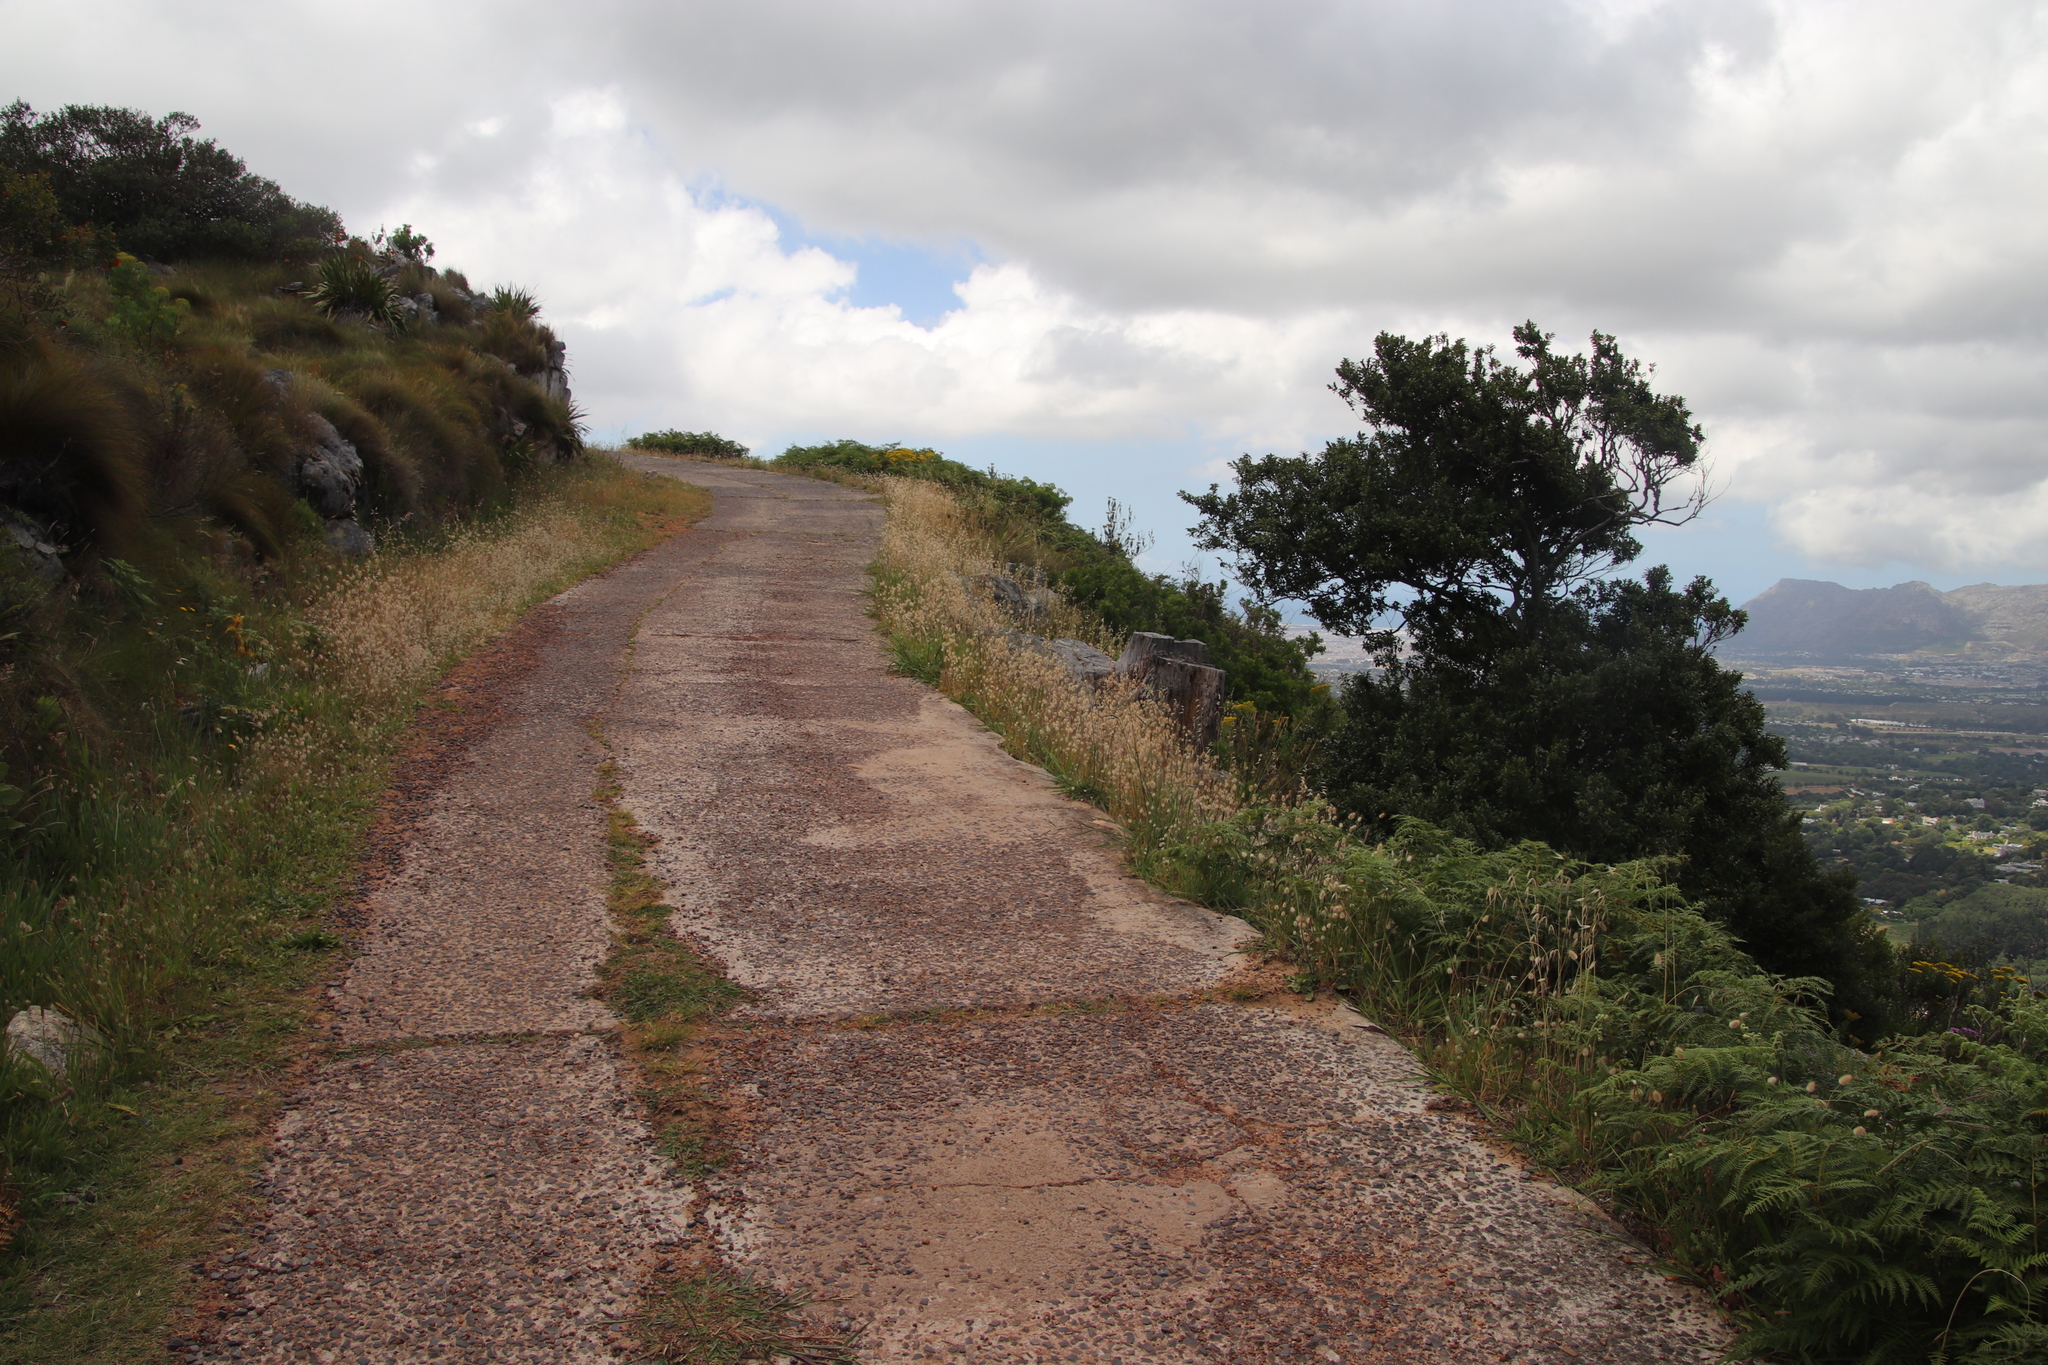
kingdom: Plantae
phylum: Tracheophyta
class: Liliopsida
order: Poales
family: Poaceae
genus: Lagurus
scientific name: Lagurus ovatus
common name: Hare's-tail
